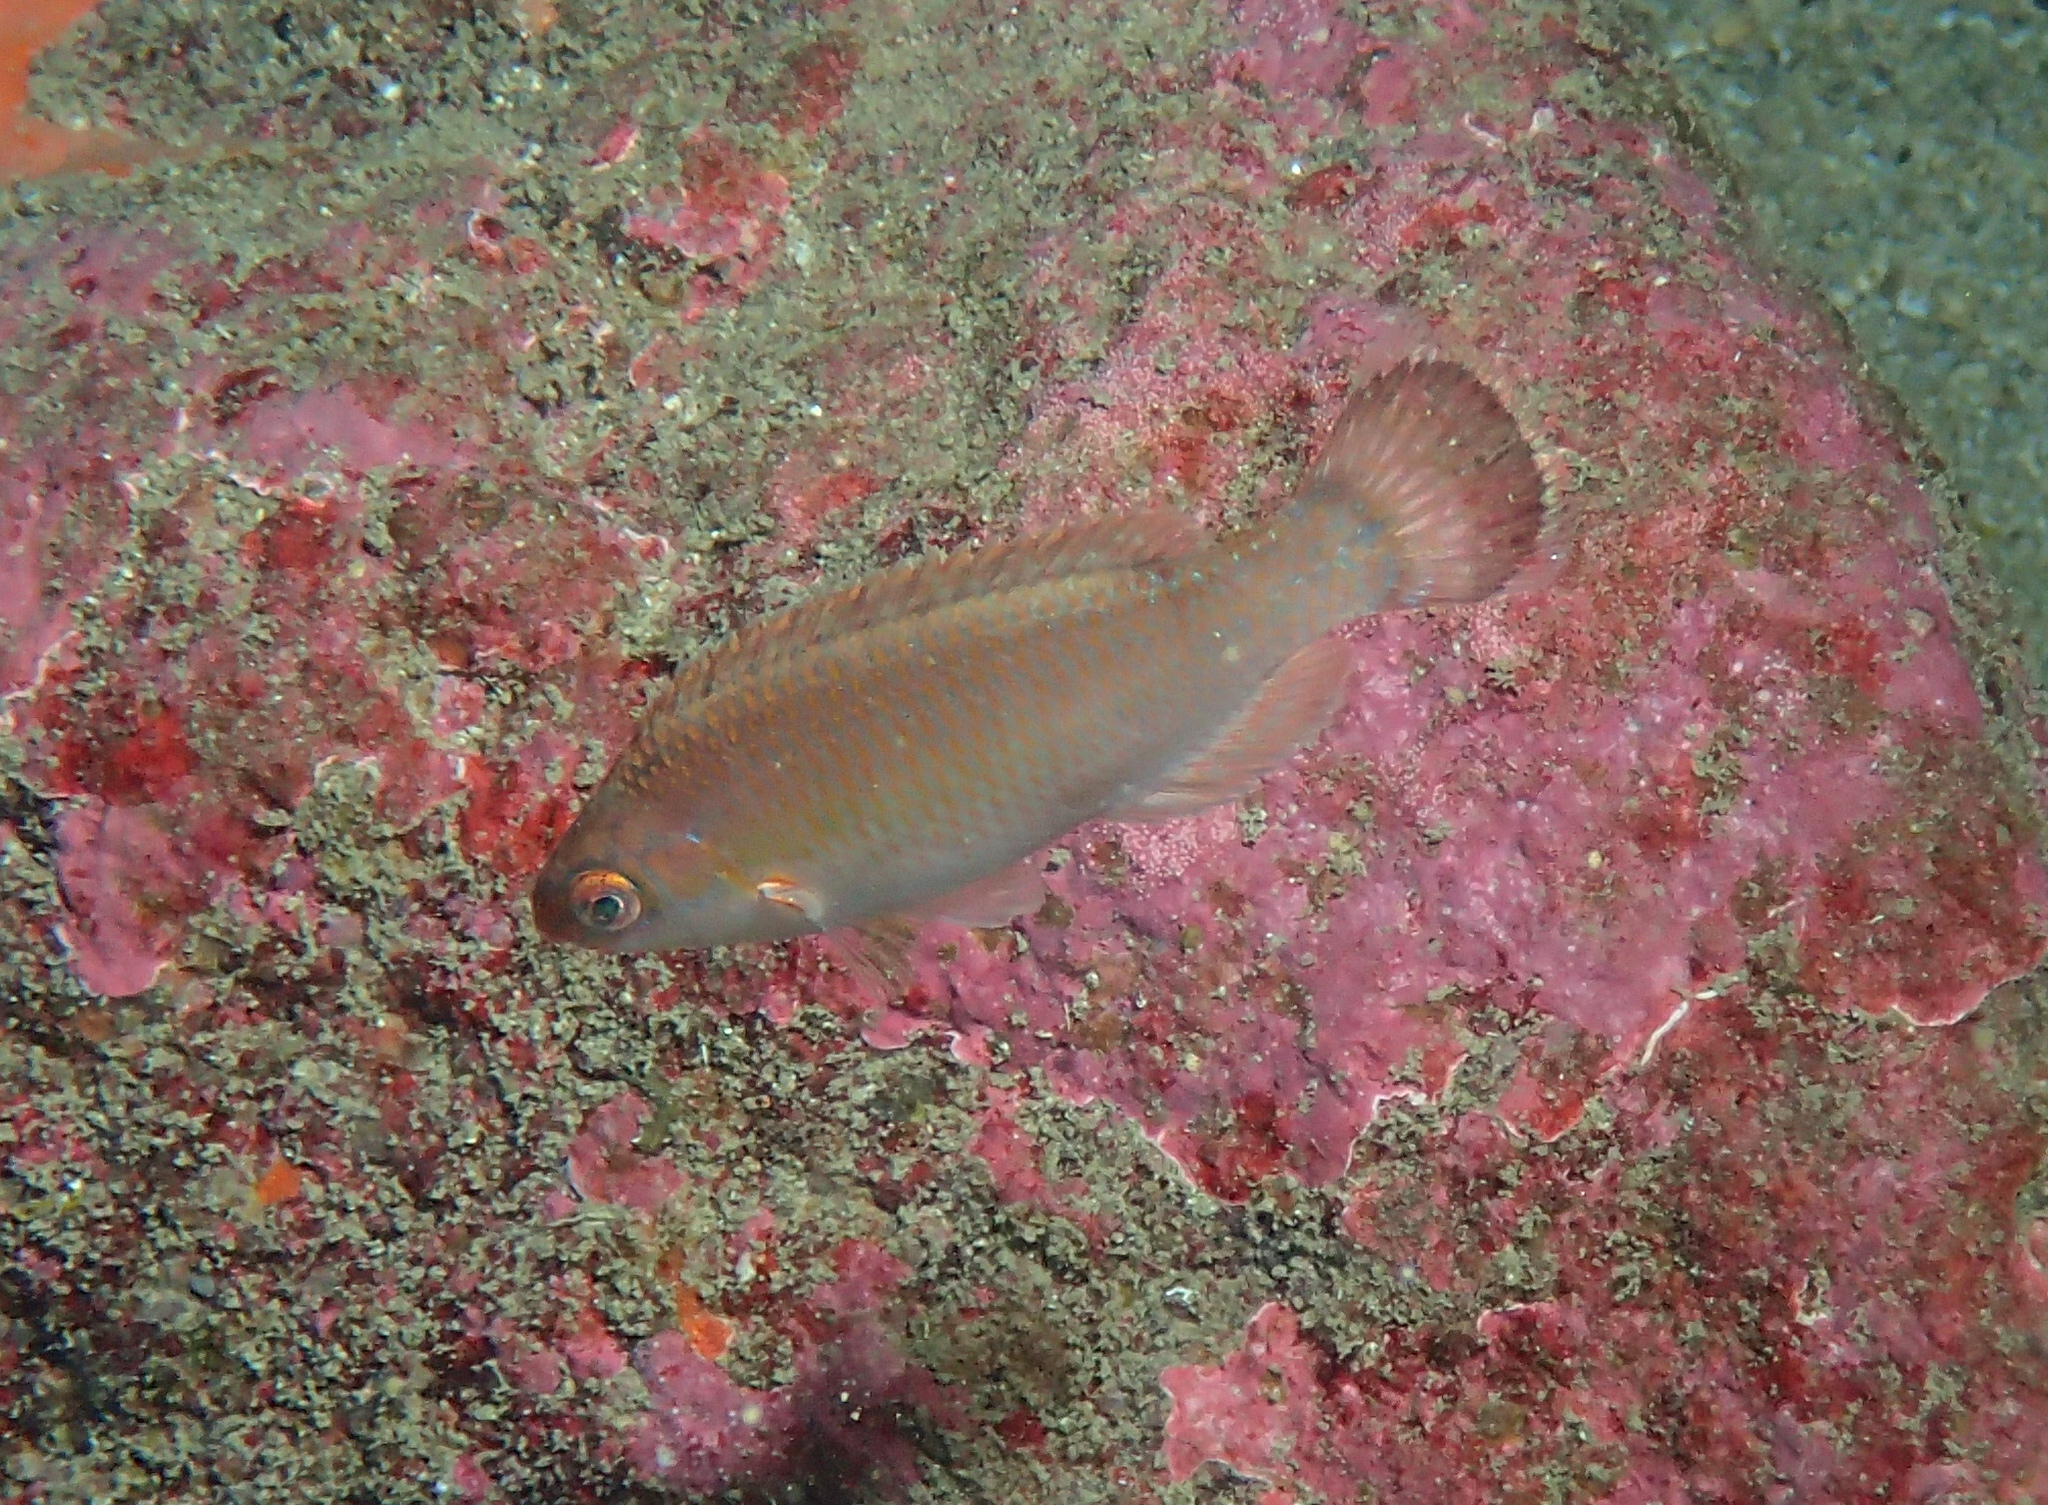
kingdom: Animalia
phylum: Chordata
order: Perciformes
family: Labridae
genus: Centrolabrus
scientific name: Centrolabrus exoletus
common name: Rock cook
